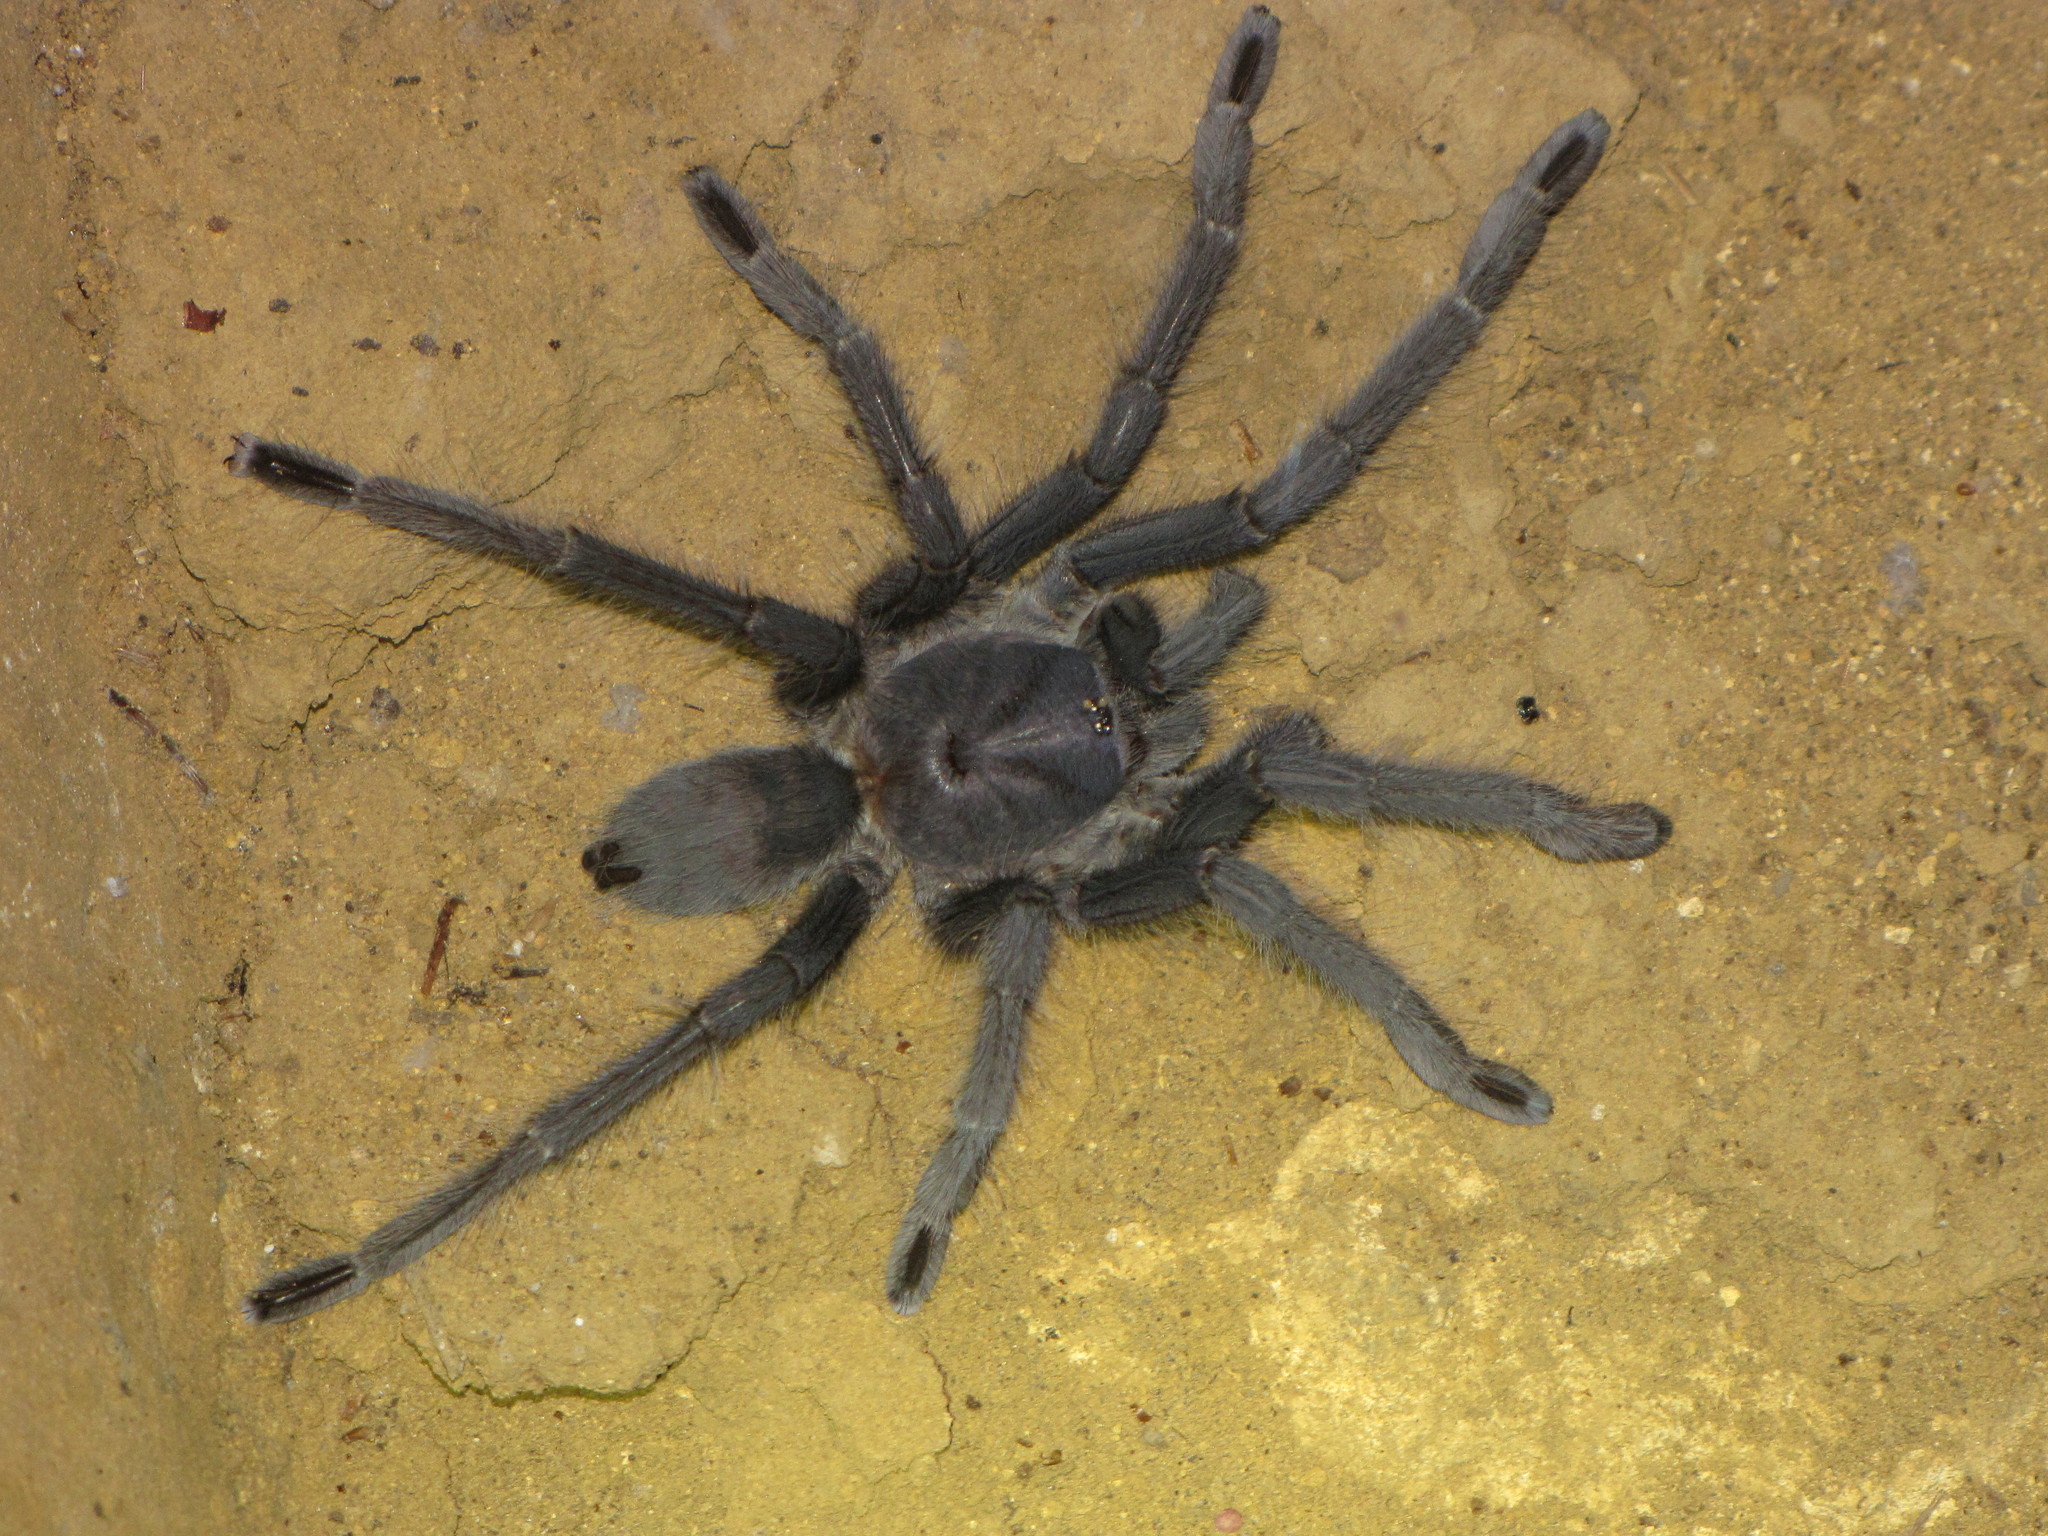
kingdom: Animalia
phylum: Arthropoda
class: Arachnida
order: Araneae
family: Theraphosidae
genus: Encyocrates
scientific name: Encyocrates raffrayi
